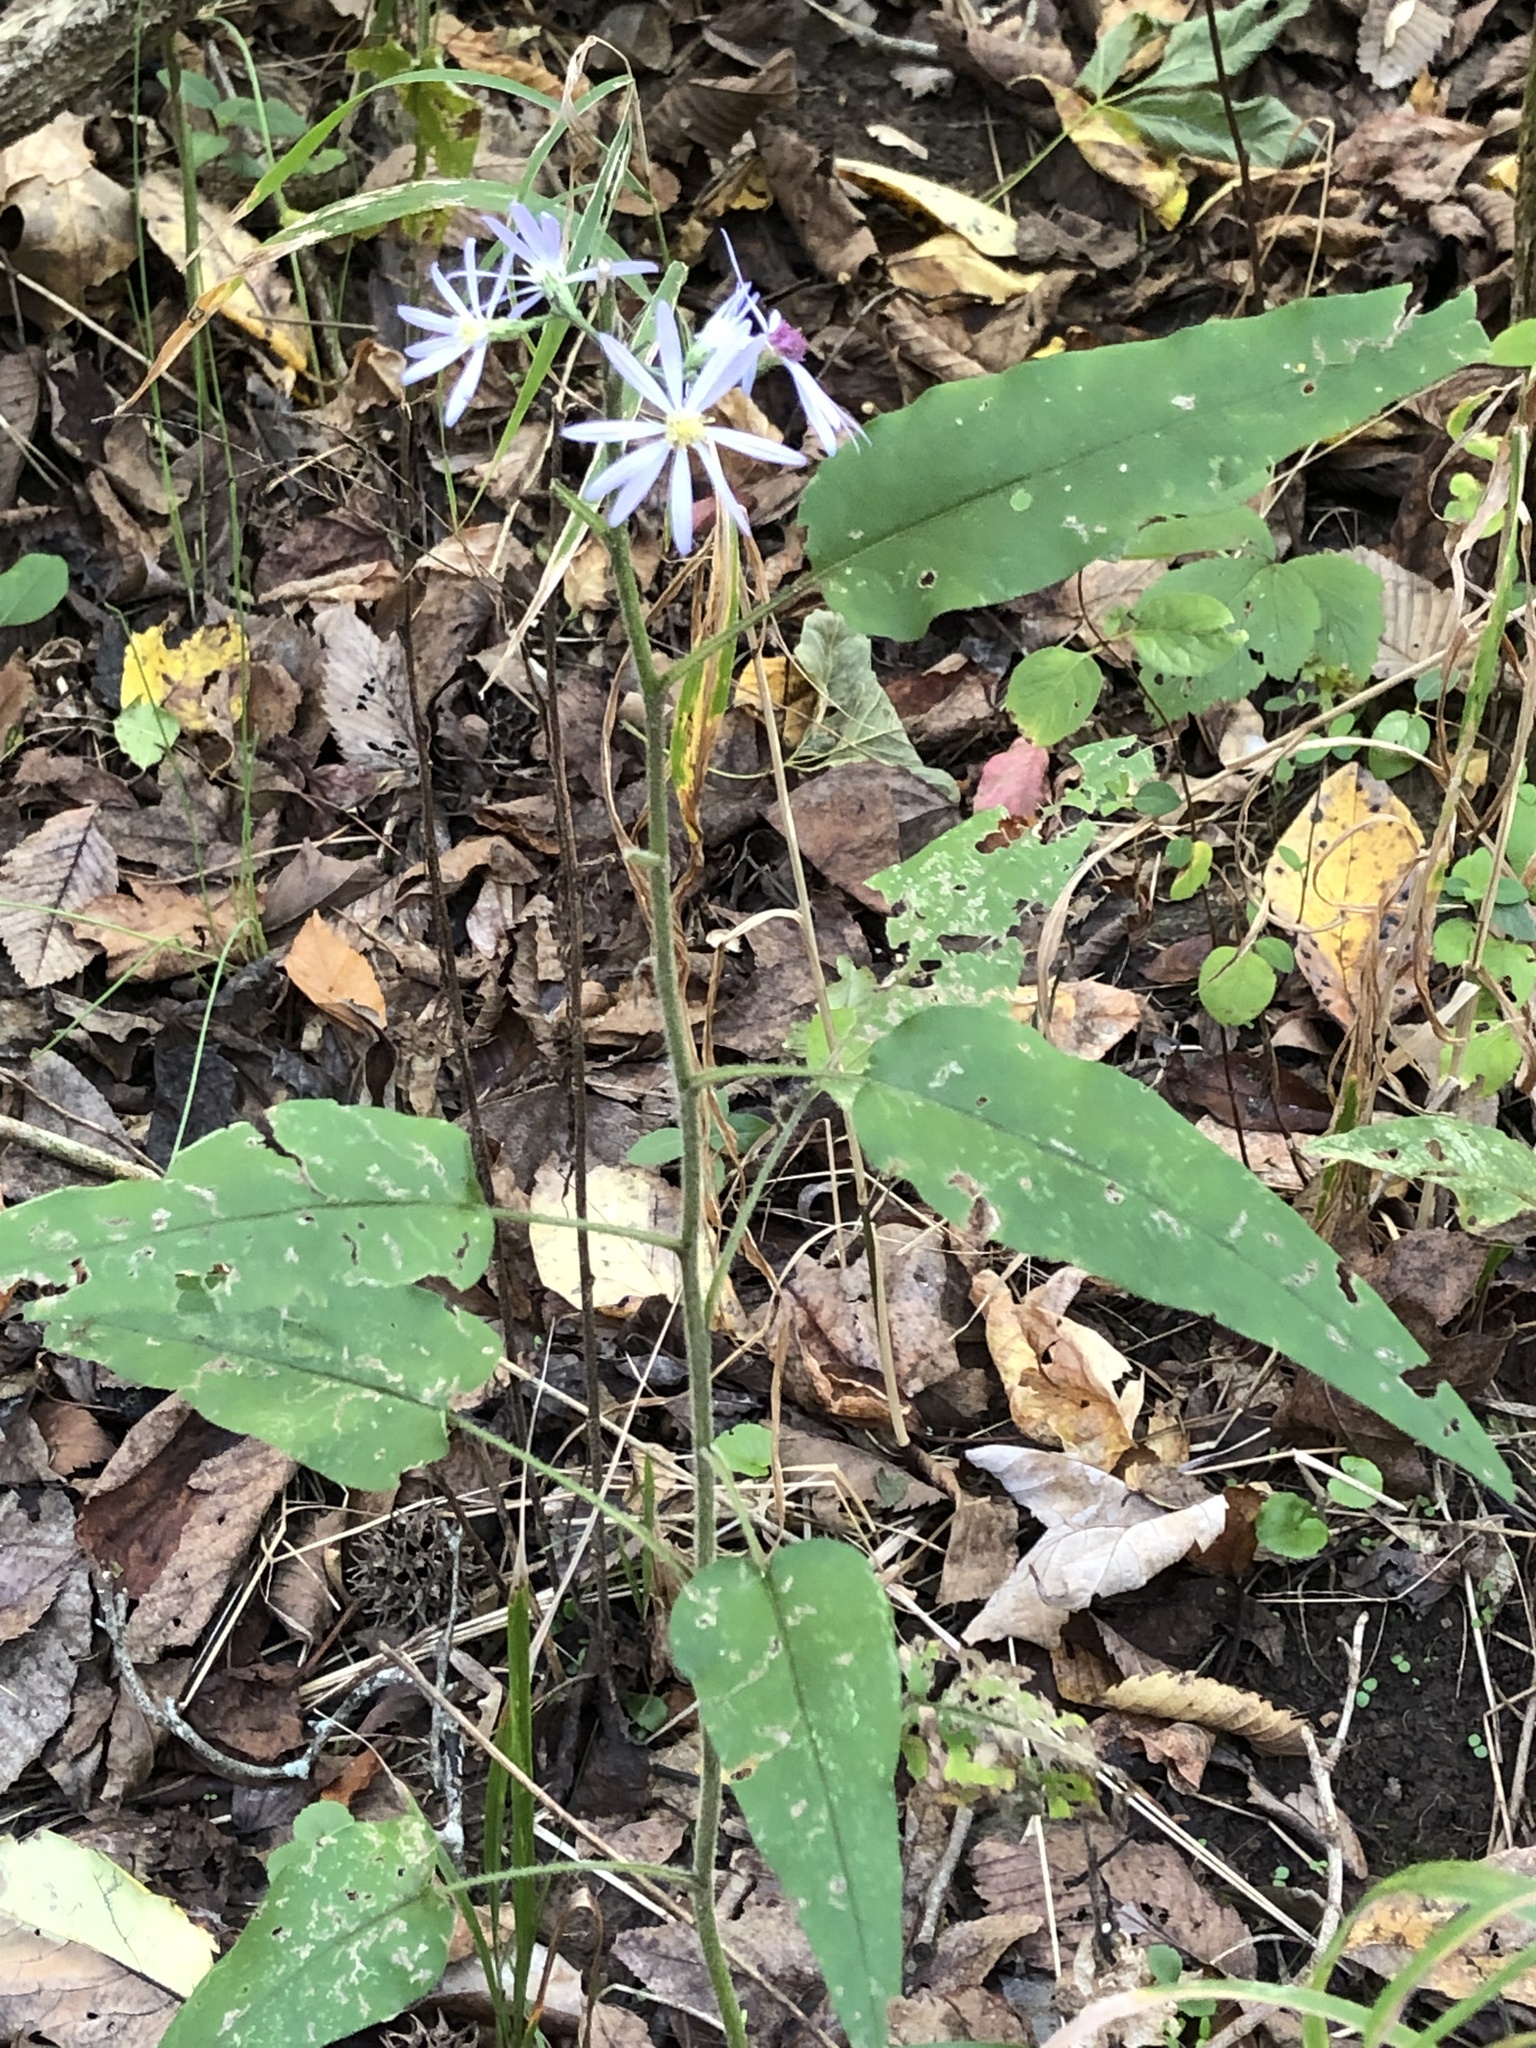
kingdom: Plantae
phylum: Tracheophyta
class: Magnoliopsida
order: Asterales
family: Asteraceae
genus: Symphyotrichum
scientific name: Symphyotrichum shortii
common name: Short's aster
